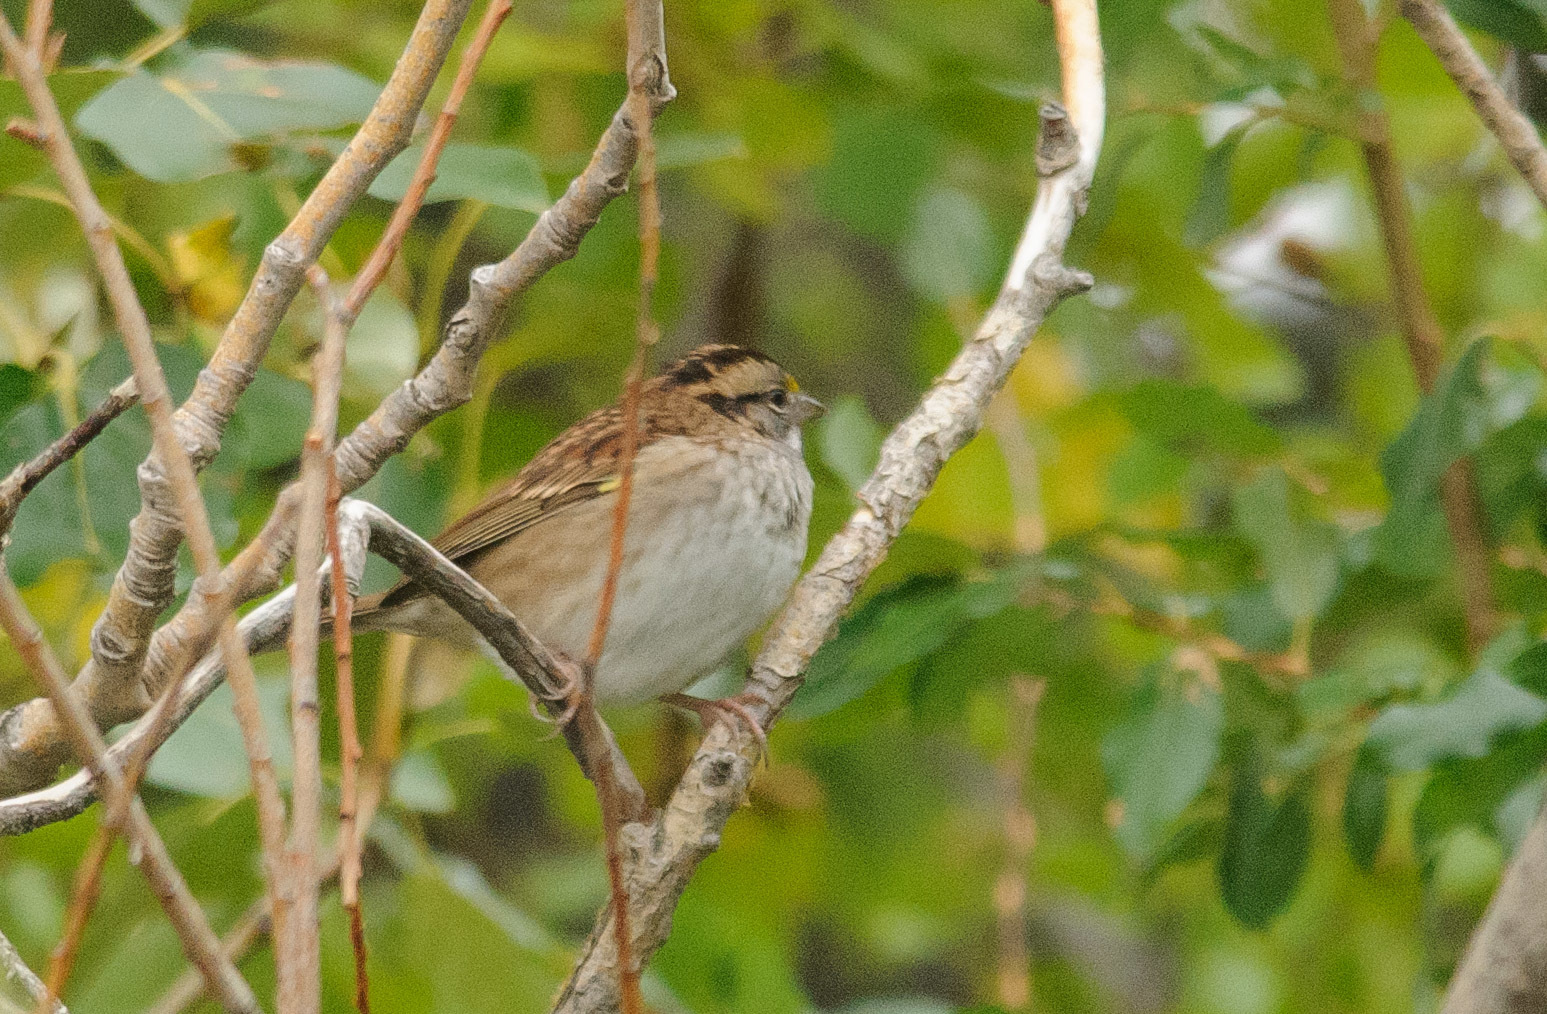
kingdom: Animalia
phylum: Chordata
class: Aves
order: Passeriformes
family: Passerellidae
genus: Zonotrichia
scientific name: Zonotrichia albicollis
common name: White-throated sparrow
